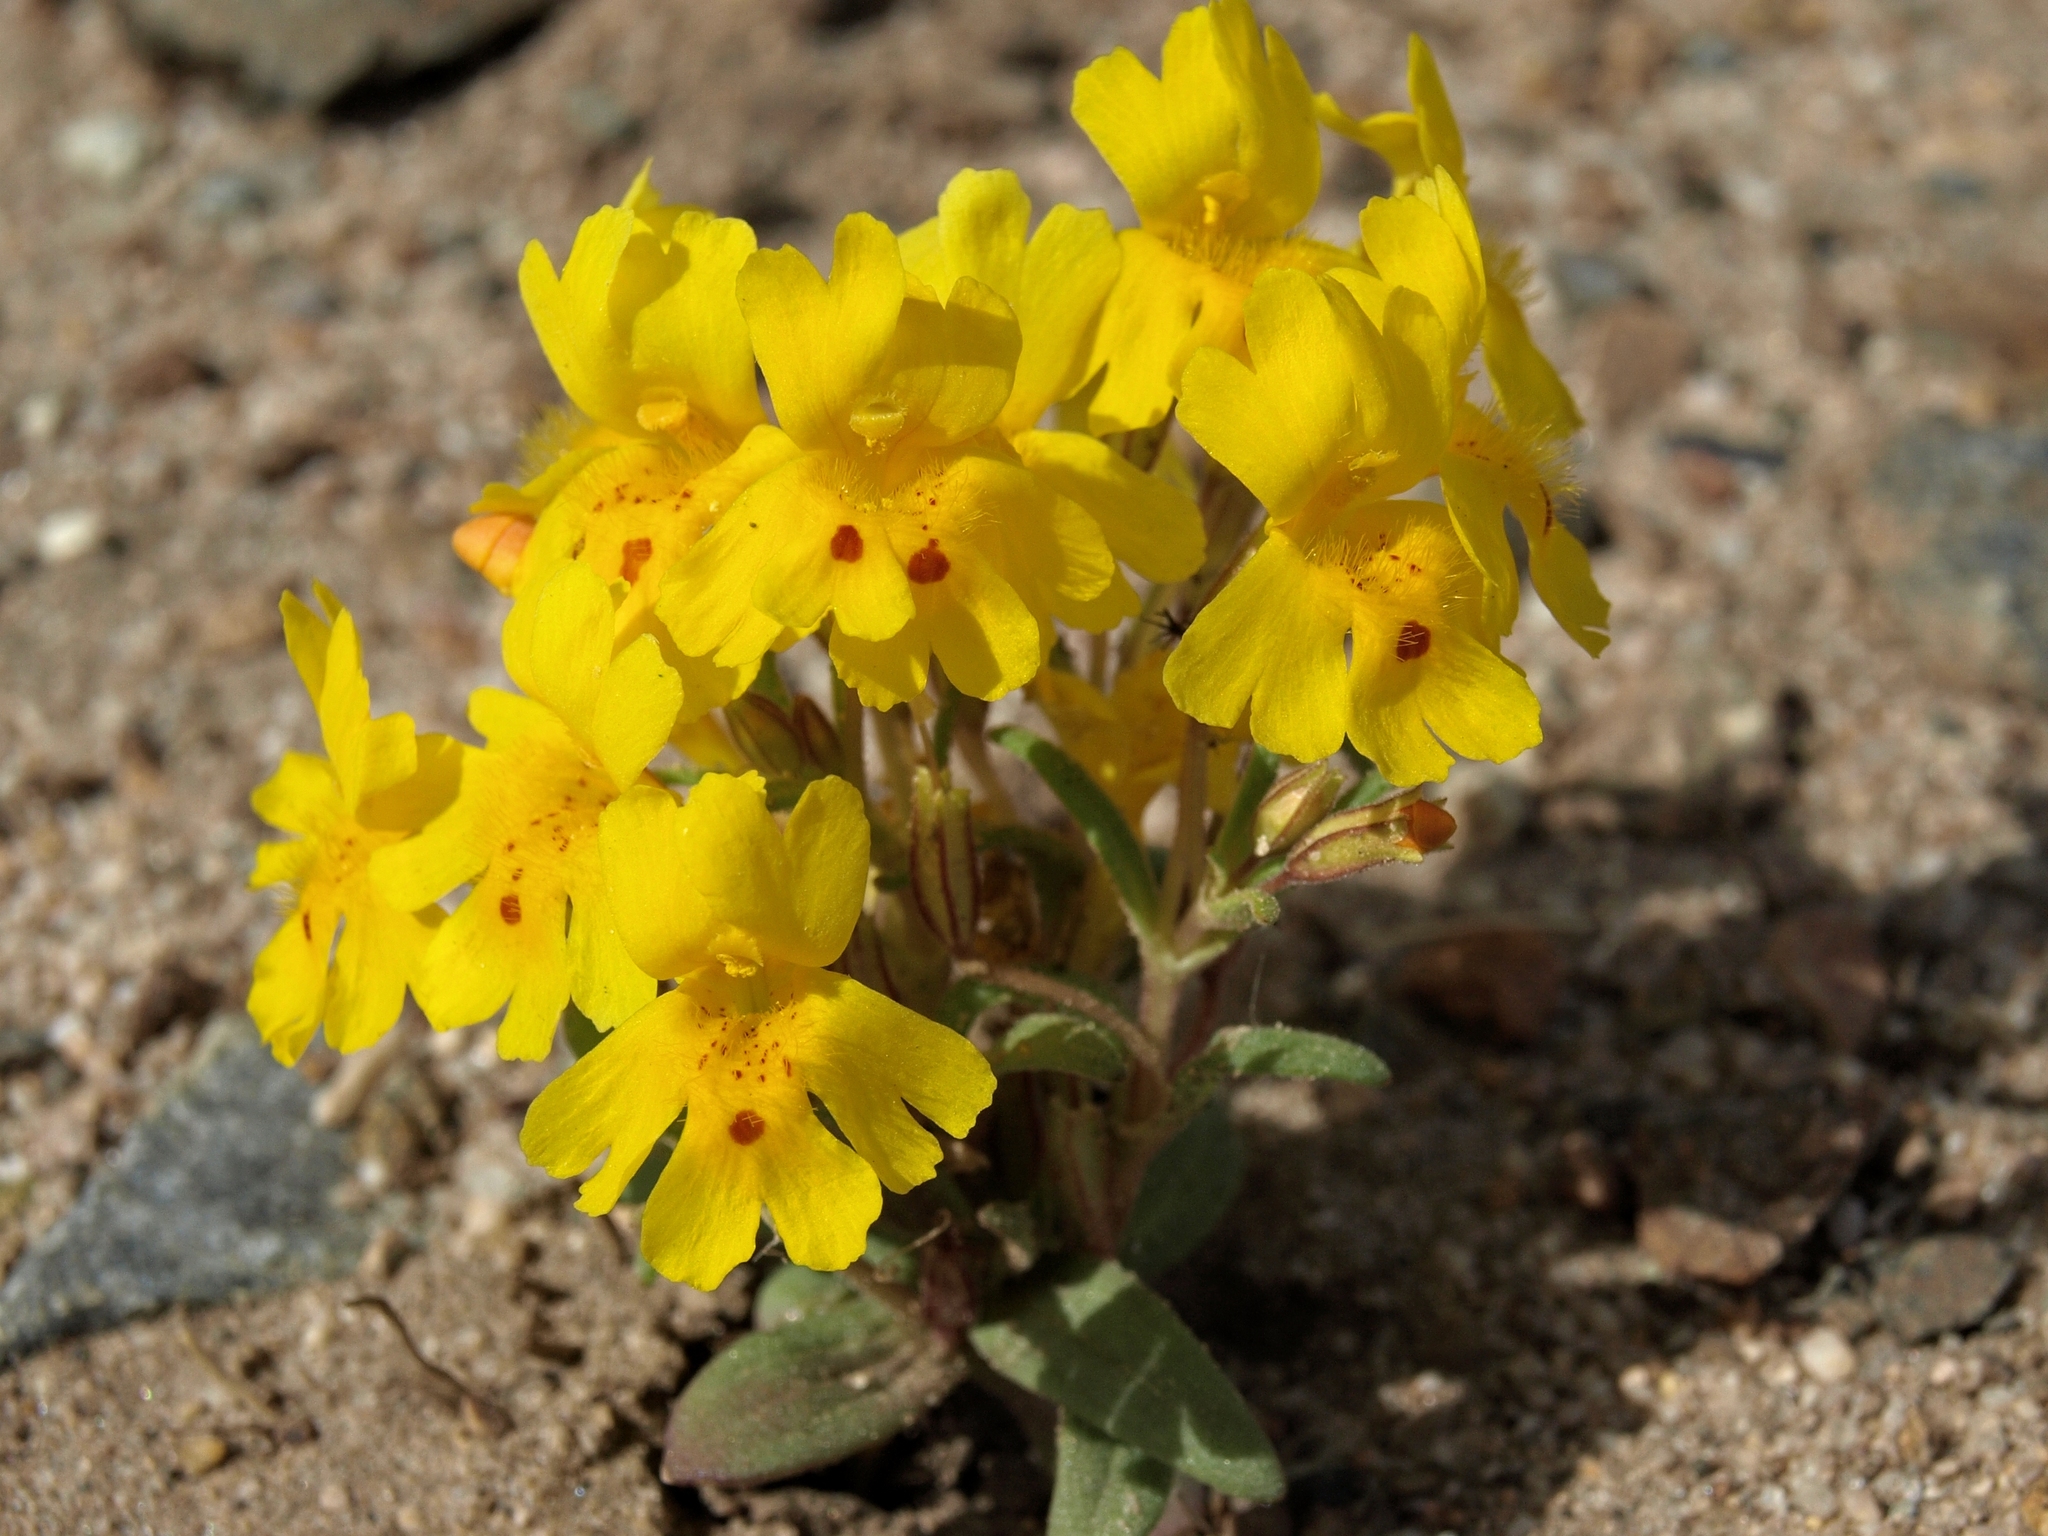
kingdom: Plantae
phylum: Tracheophyta
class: Magnoliopsida
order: Lamiales
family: Phrymaceae
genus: Erythranthe
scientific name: Erythranthe carsonensis
